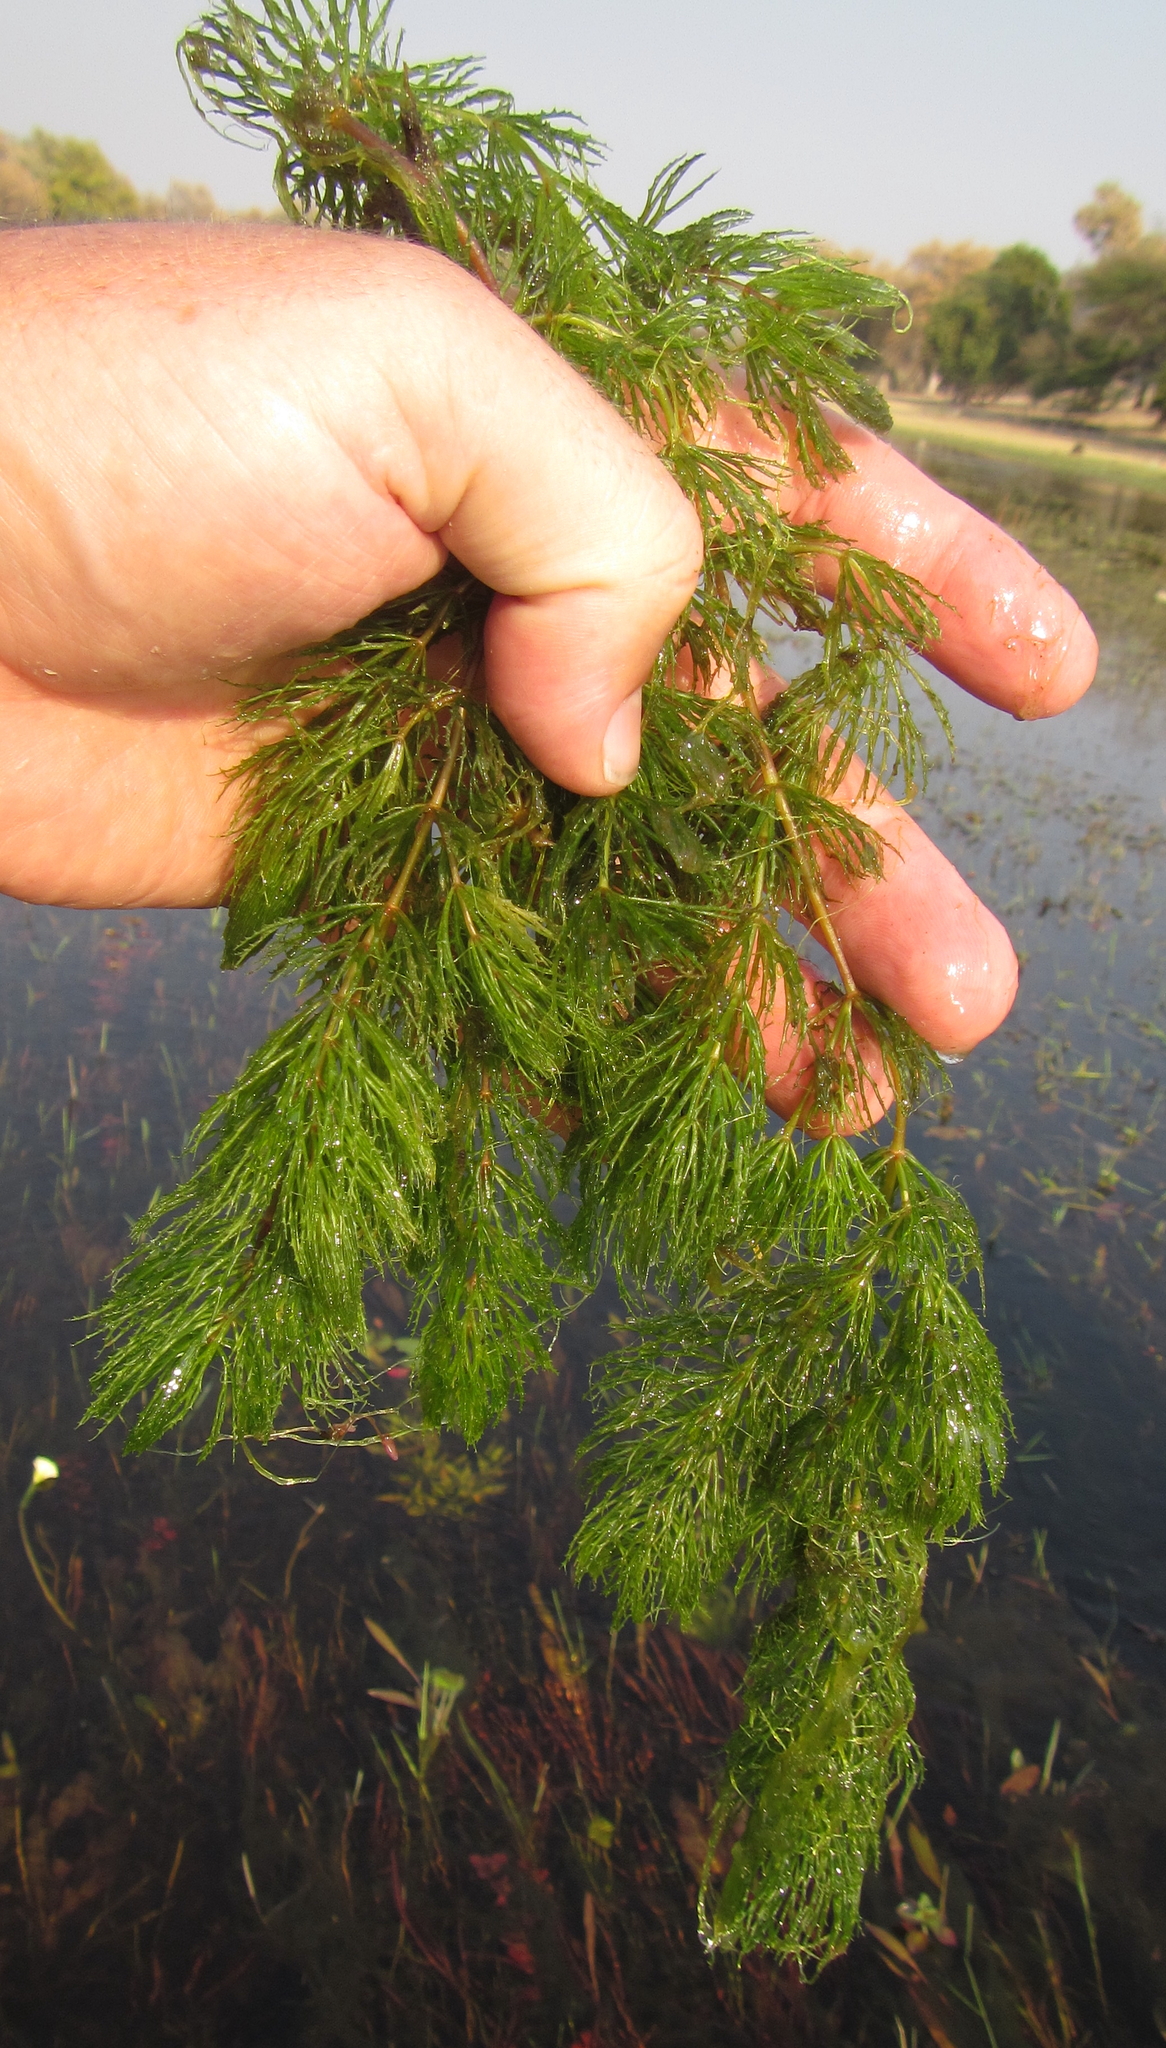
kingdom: Plantae
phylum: Tracheophyta
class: Magnoliopsida
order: Ceratophyllales
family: Ceratophyllaceae
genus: Ceratophyllum
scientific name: Ceratophyllum demersum
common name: Rigid hornwort
